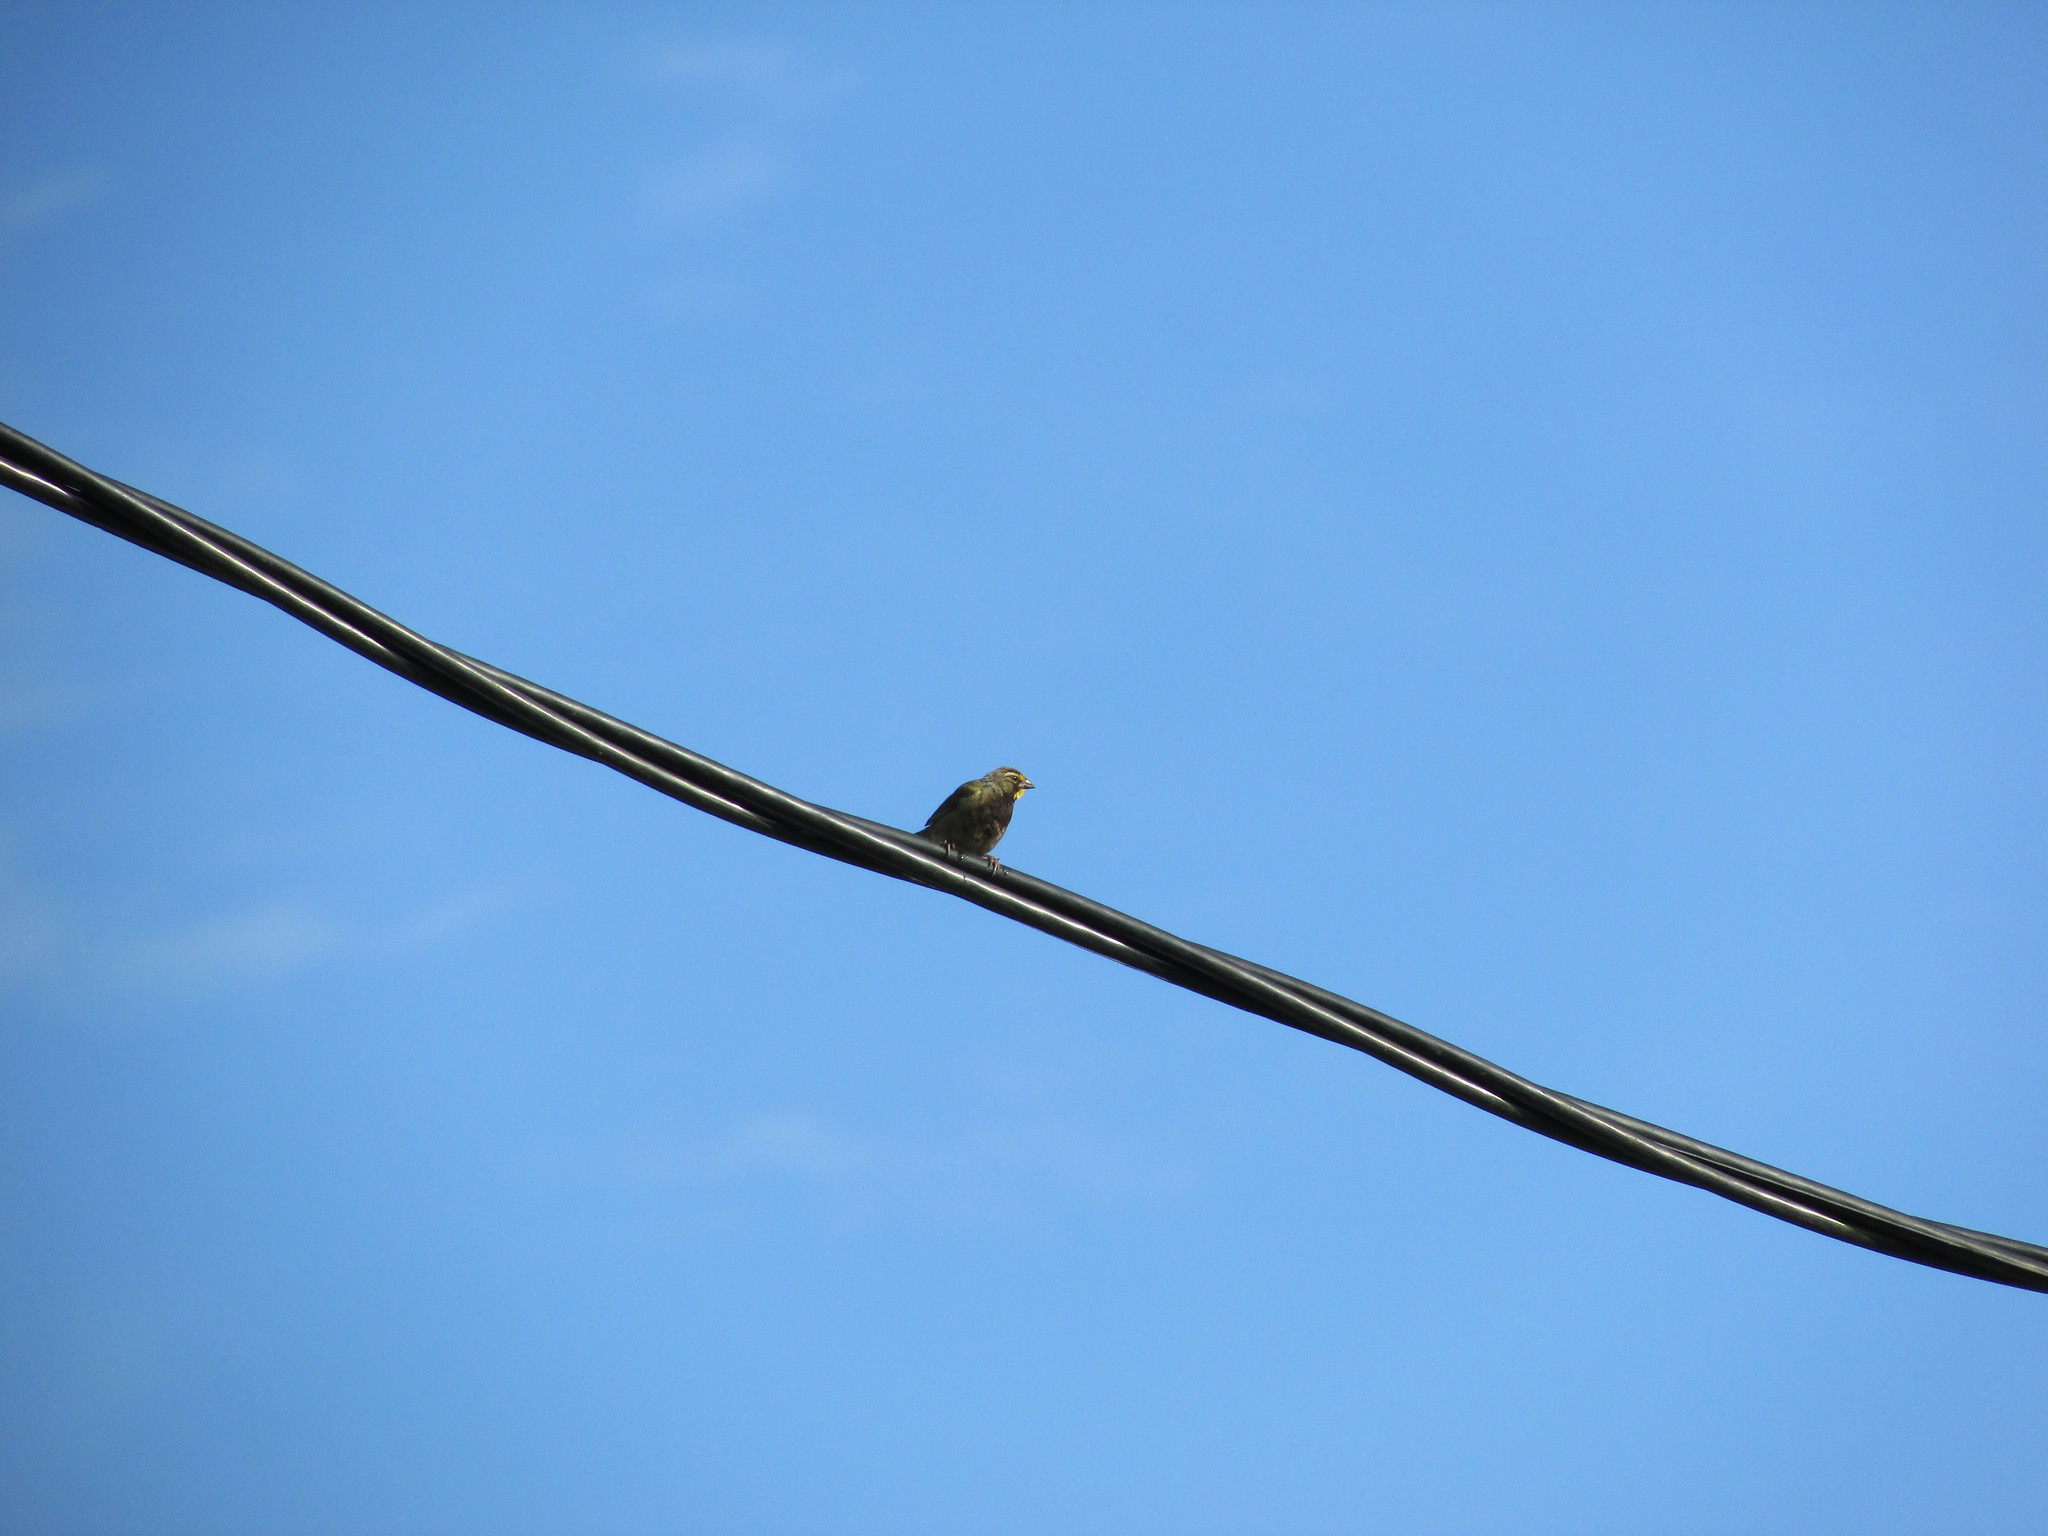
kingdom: Animalia
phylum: Chordata
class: Aves
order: Passeriformes
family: Thraupidae
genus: Tiaris
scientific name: Tiaris olivaceus
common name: Yellow-faced grassquit
